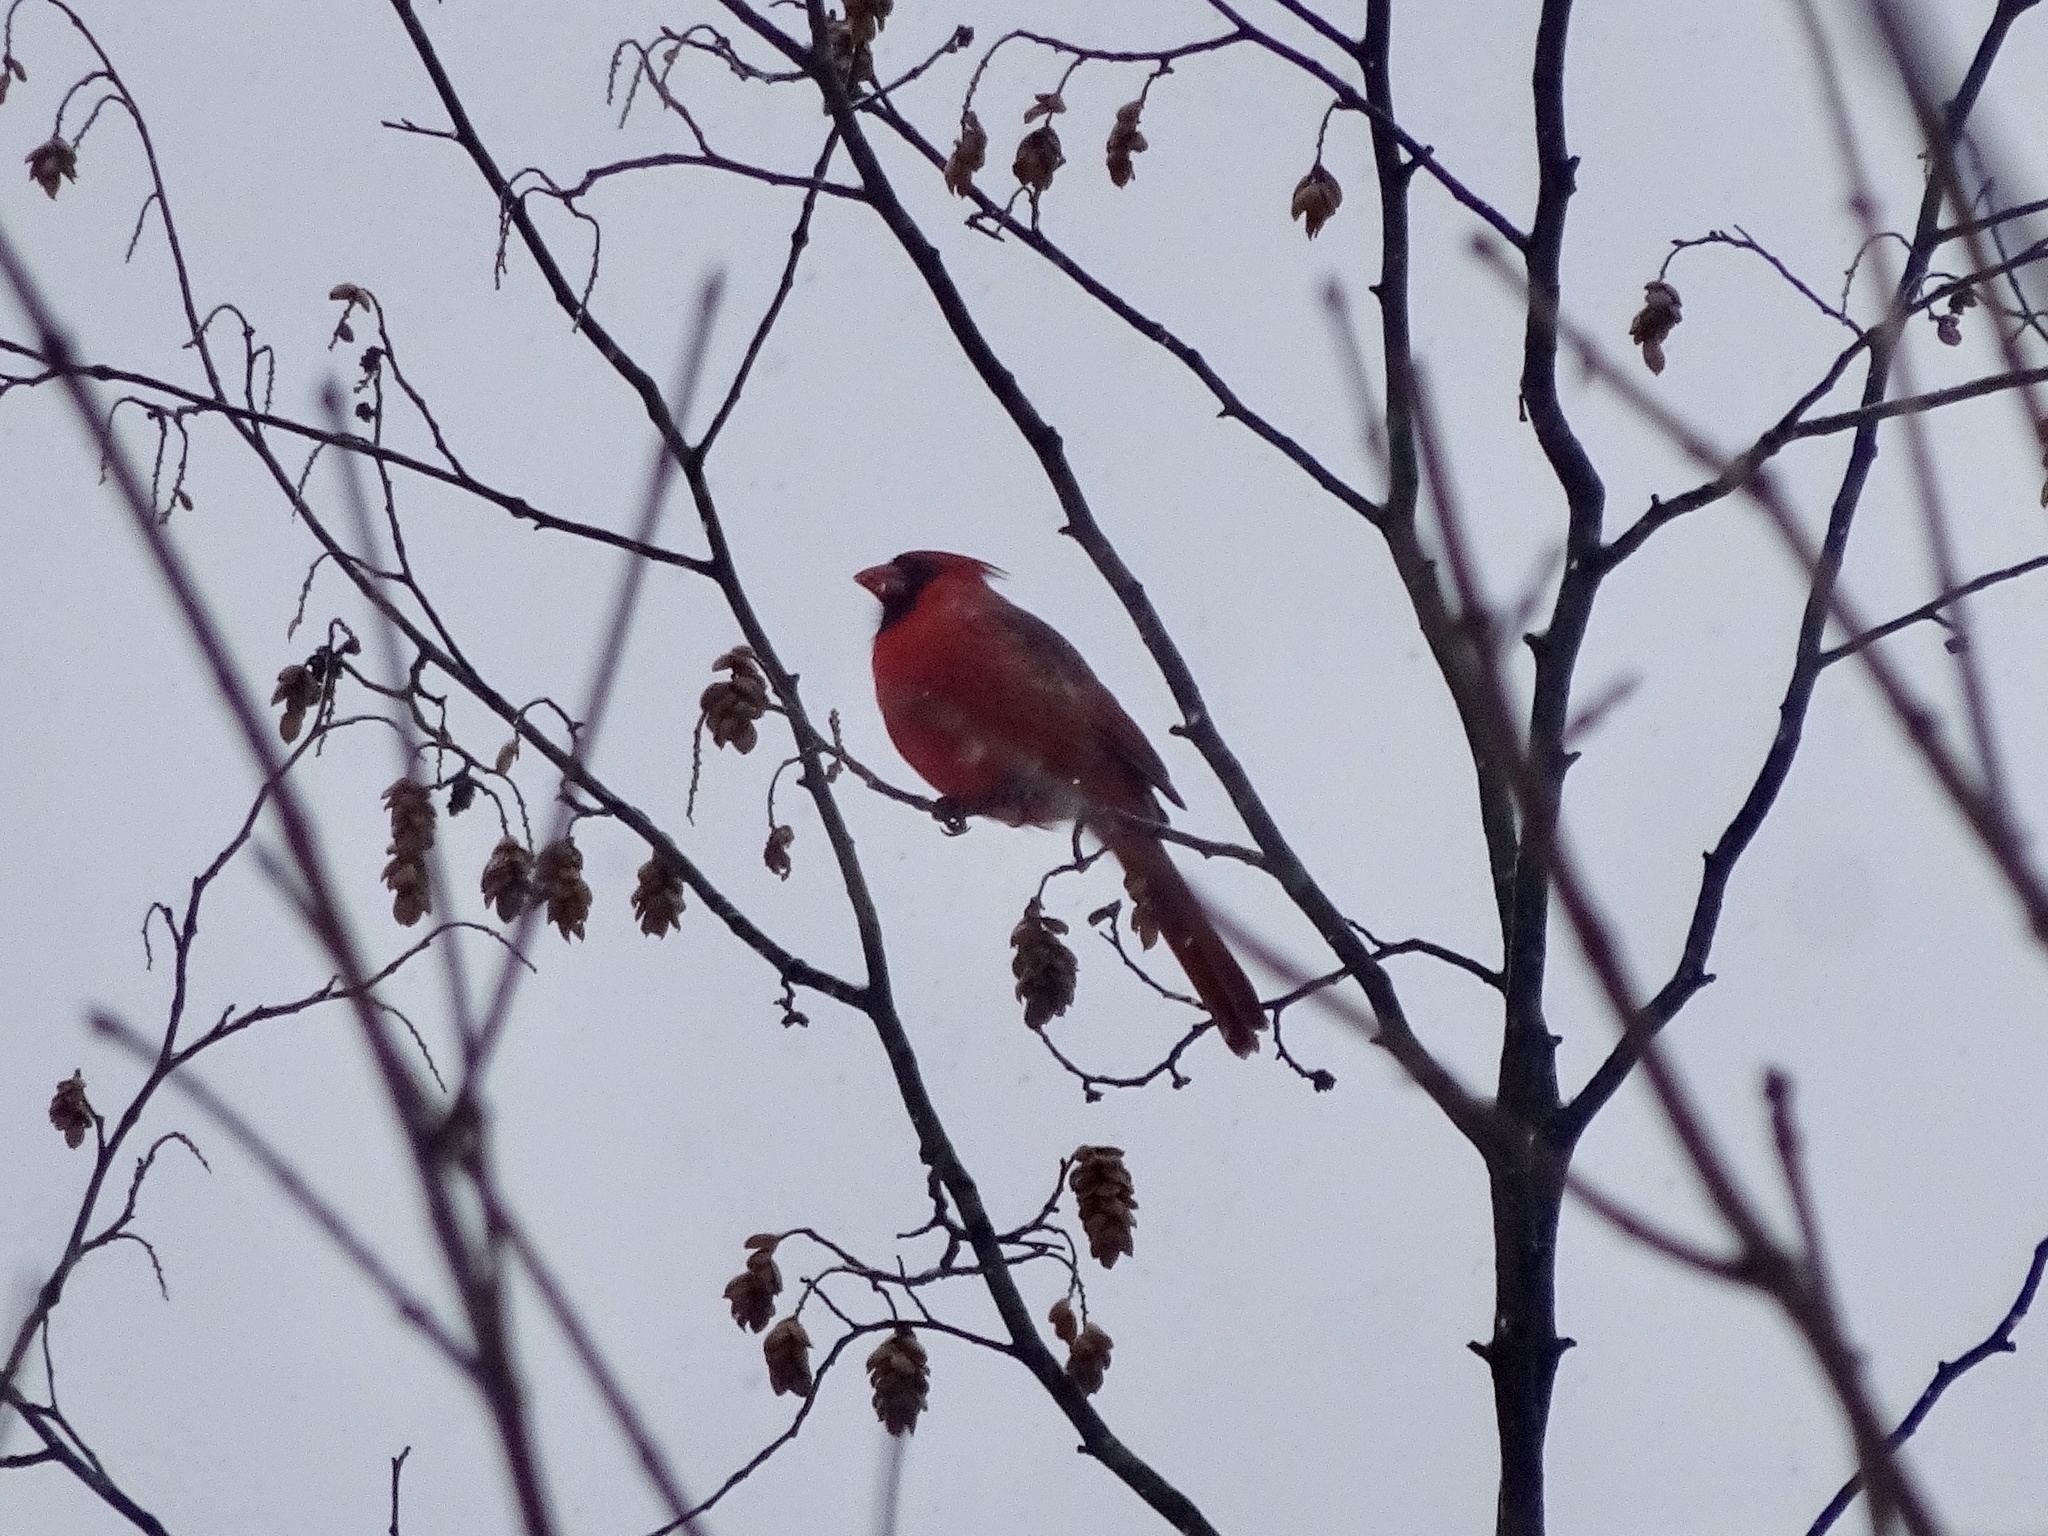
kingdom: Animalia
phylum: Chordata
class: Aves
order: Passeriformes
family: Cardinalidae
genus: Cardinalis
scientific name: Cardinalis cardinalis
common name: Northern cardinal
